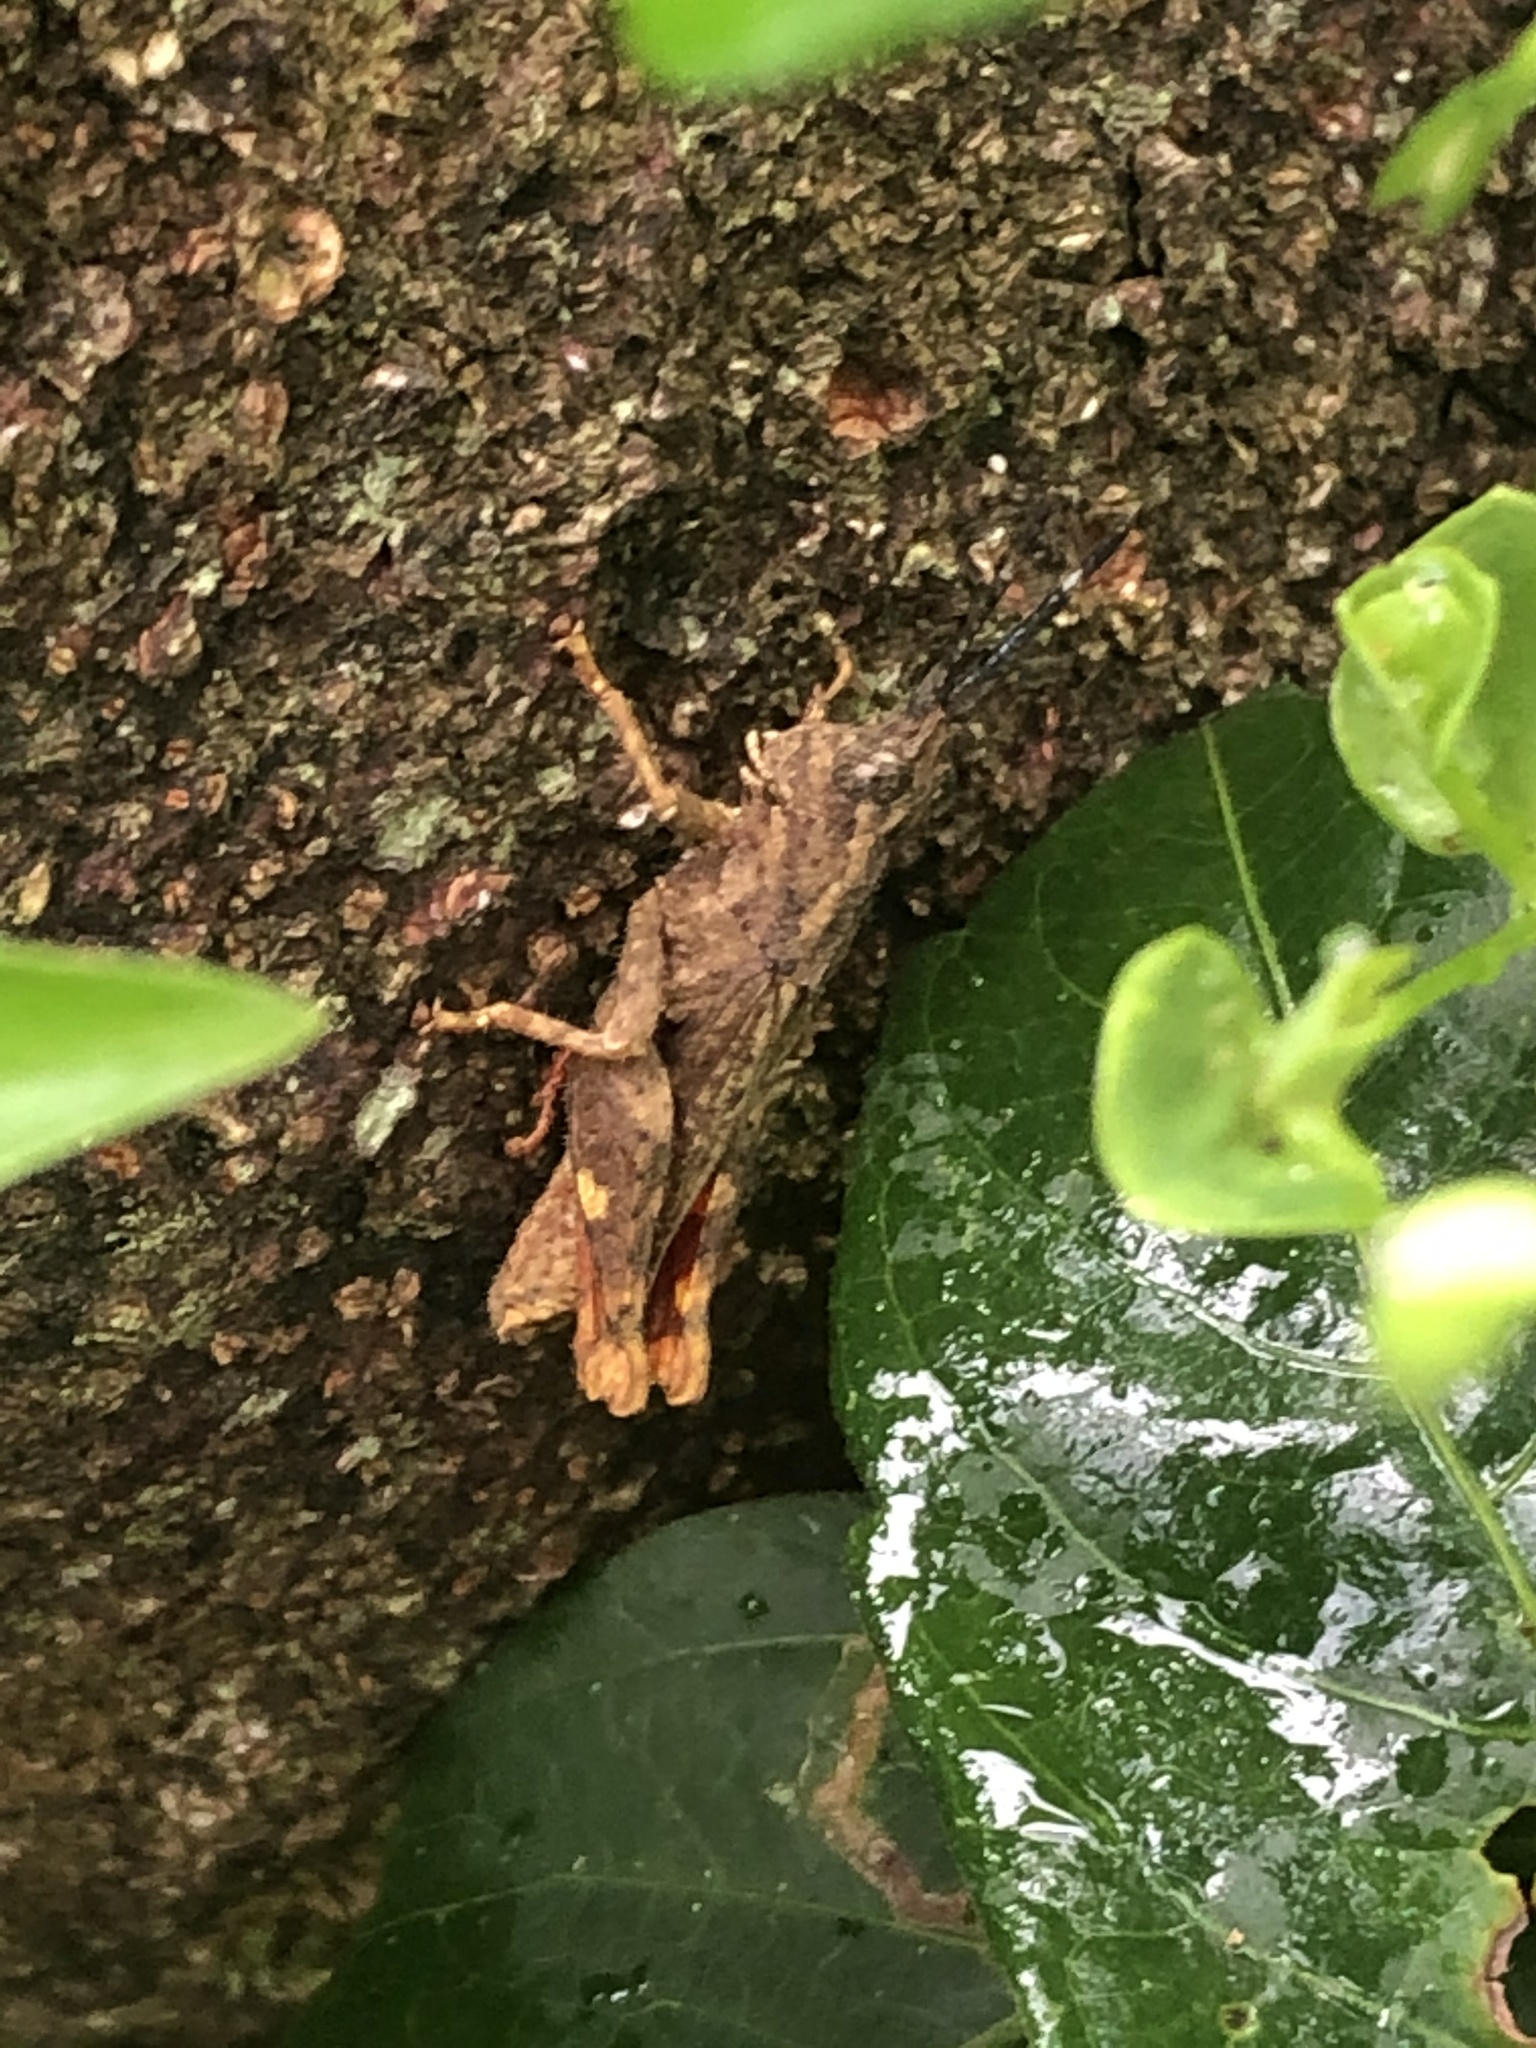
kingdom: Animalia
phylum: Arthropoda
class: Insecta
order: Orthoptera
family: Acrididae
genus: Locheuma
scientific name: Locheuma brunneri
